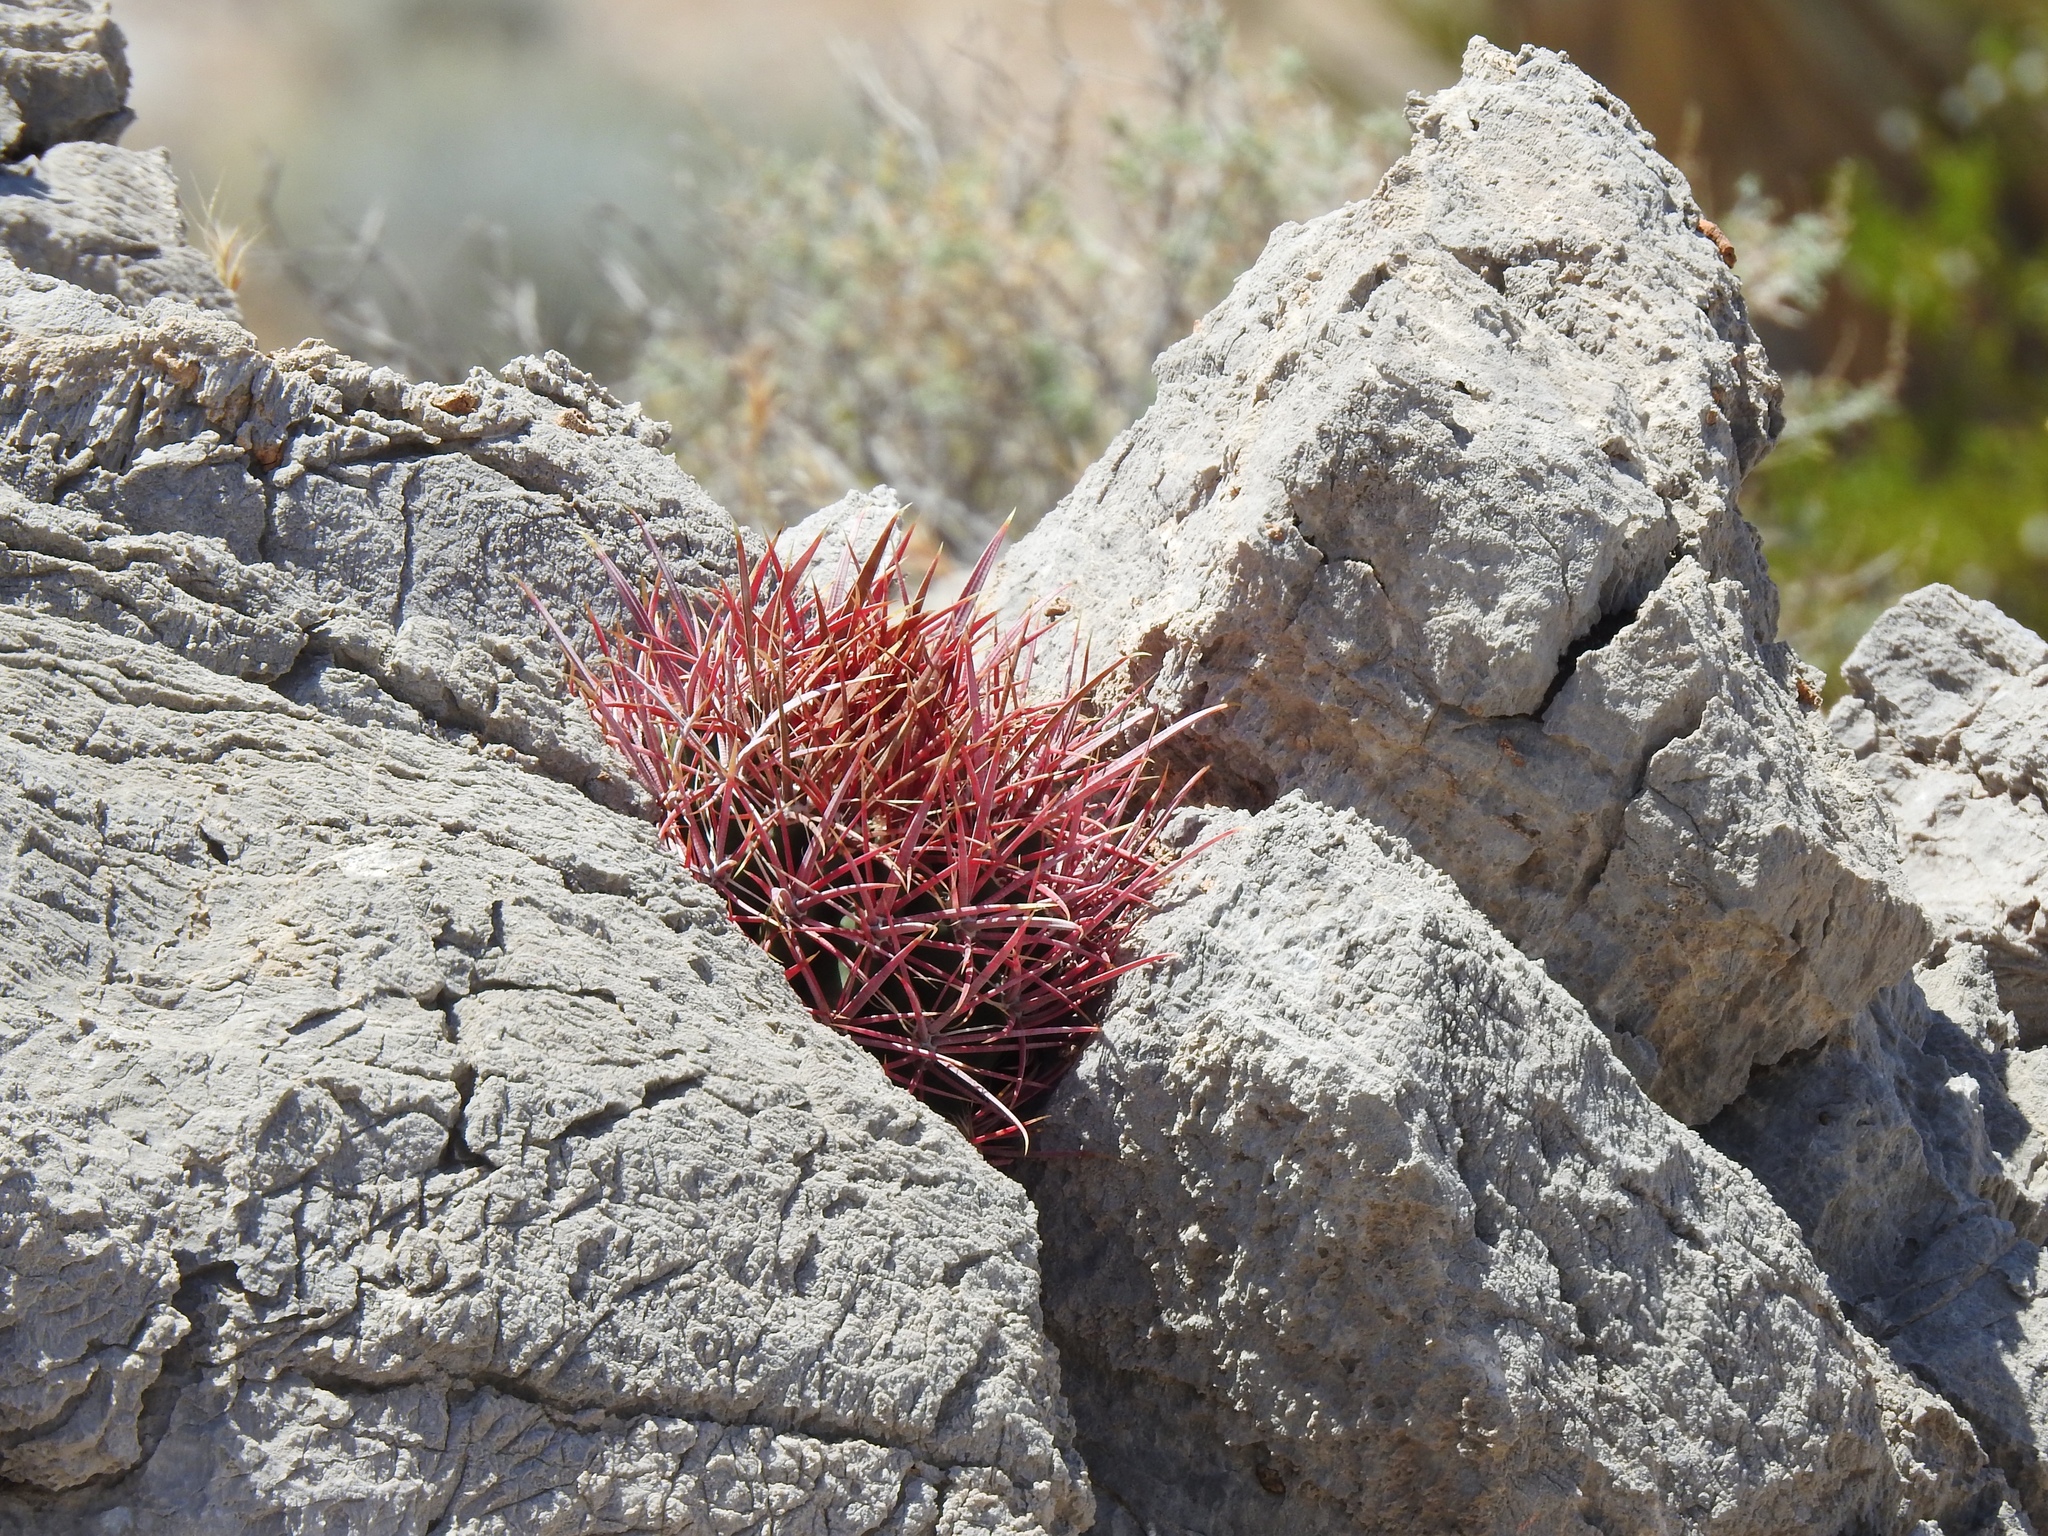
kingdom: Plantae
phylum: Tracheophyta
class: Magnoliopsida
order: Caryophyllales
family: Cactaceae
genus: Ferocactus
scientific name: Ferocactus cylindraceus
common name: California barrel cactus
